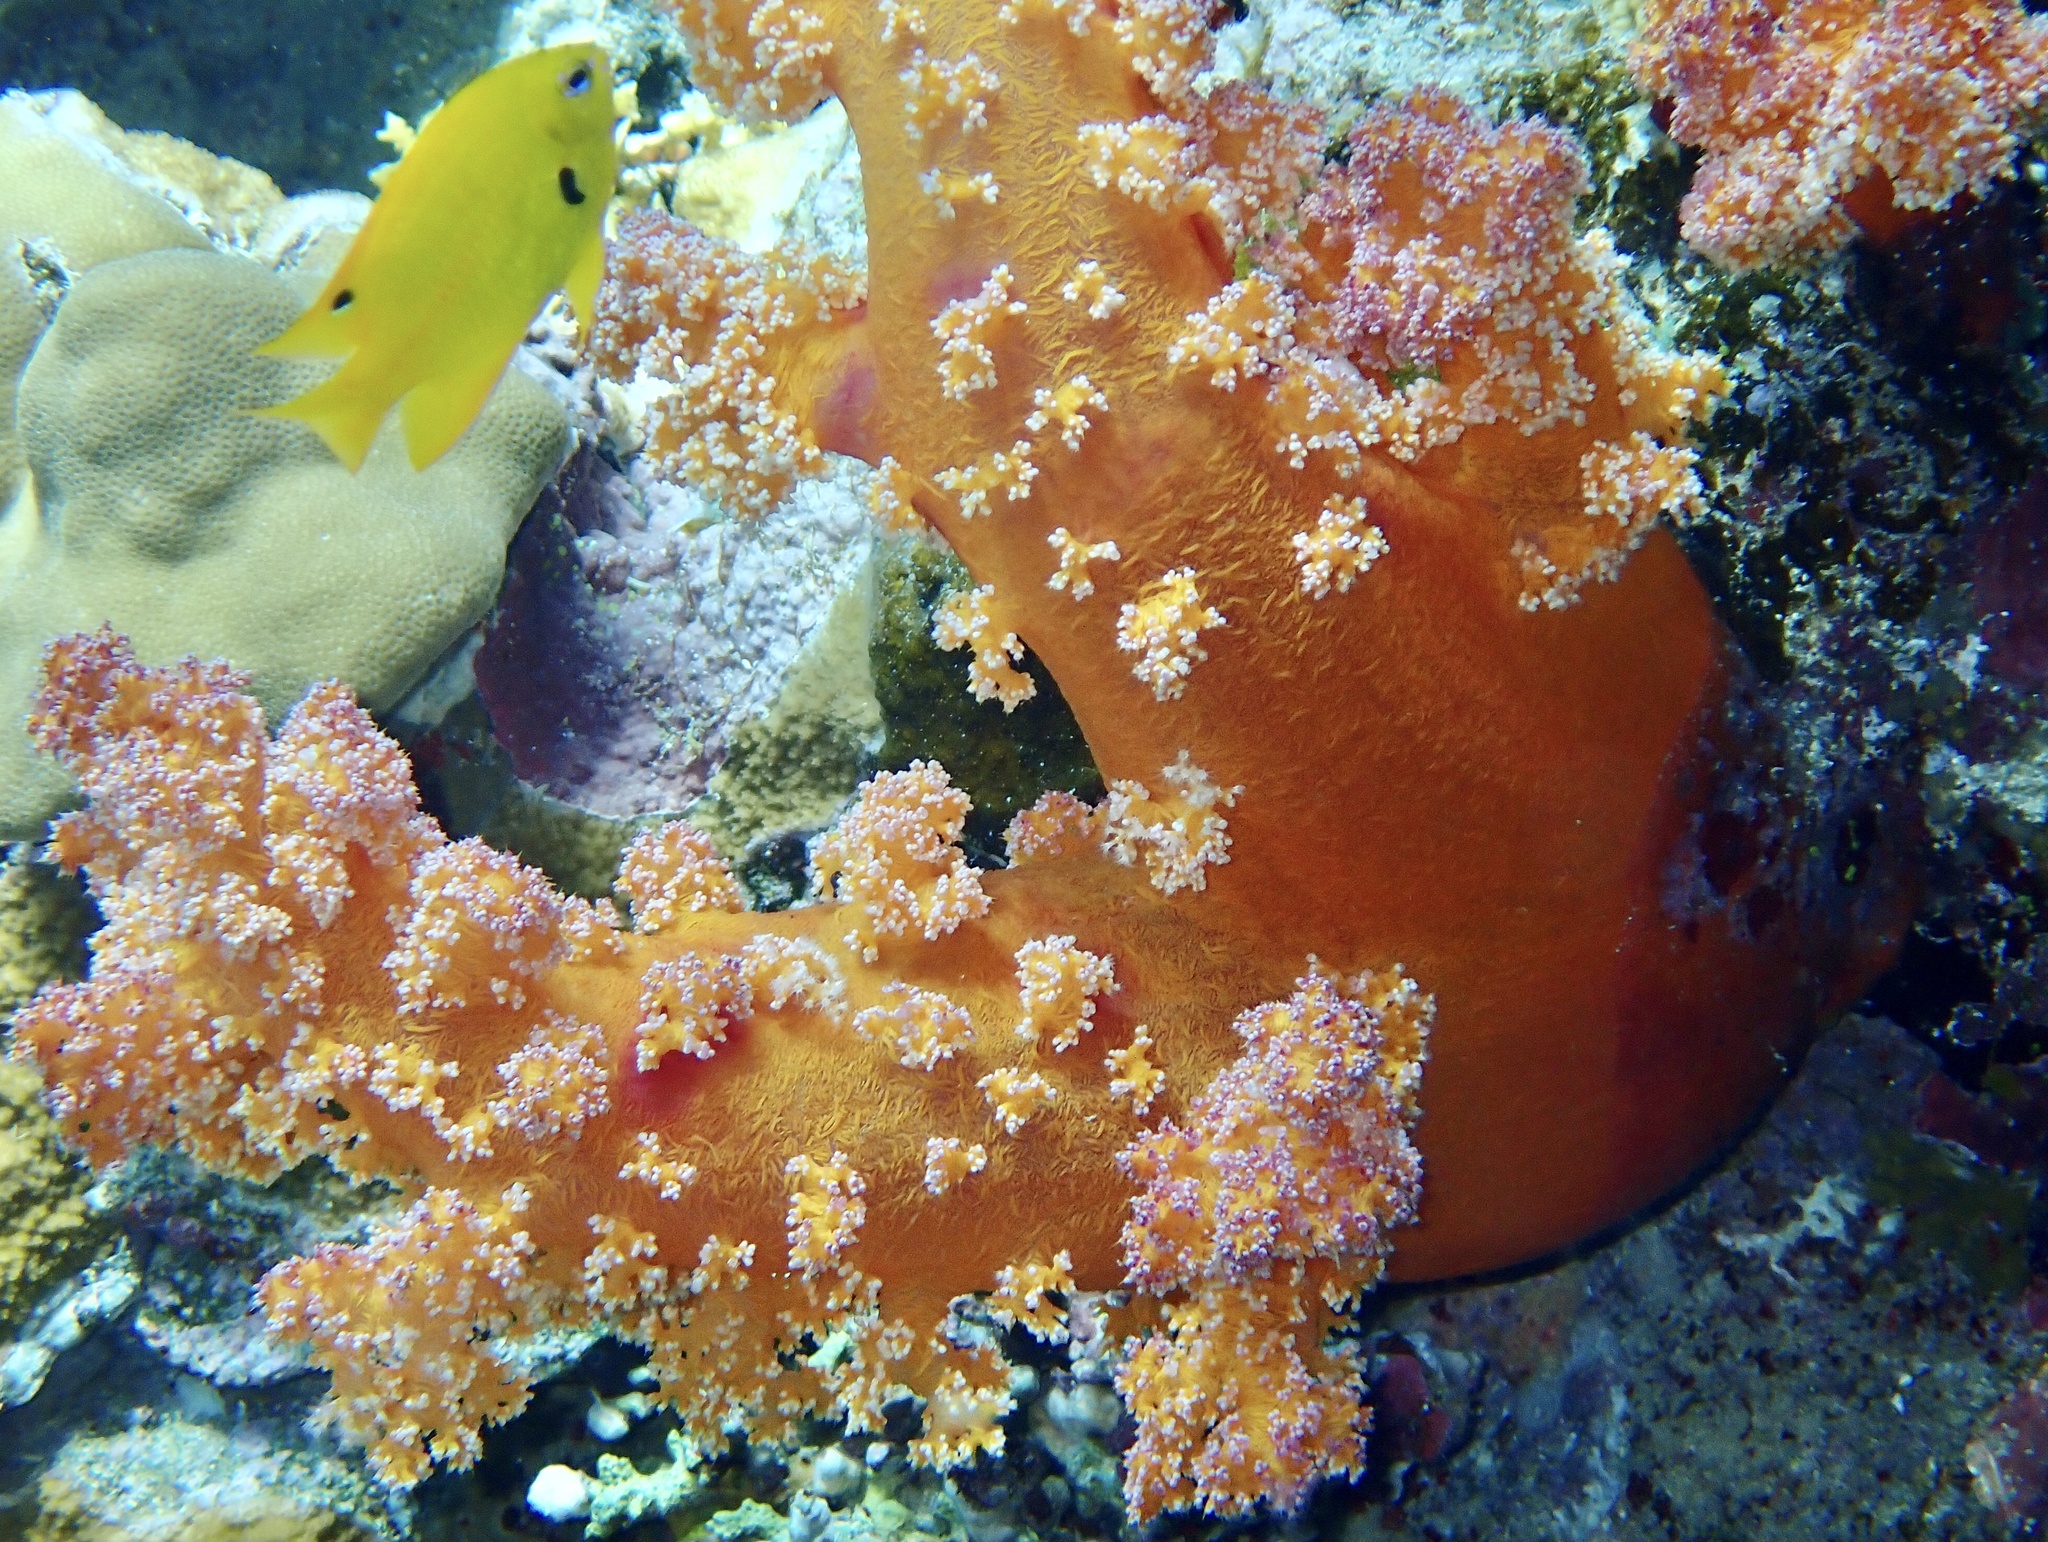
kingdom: Animalia
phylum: Cnidaria
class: Anthozoa
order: Malacalcyonacea
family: Nephtheidae
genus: Dendronephthya
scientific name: Dendronephthya hemprichi
